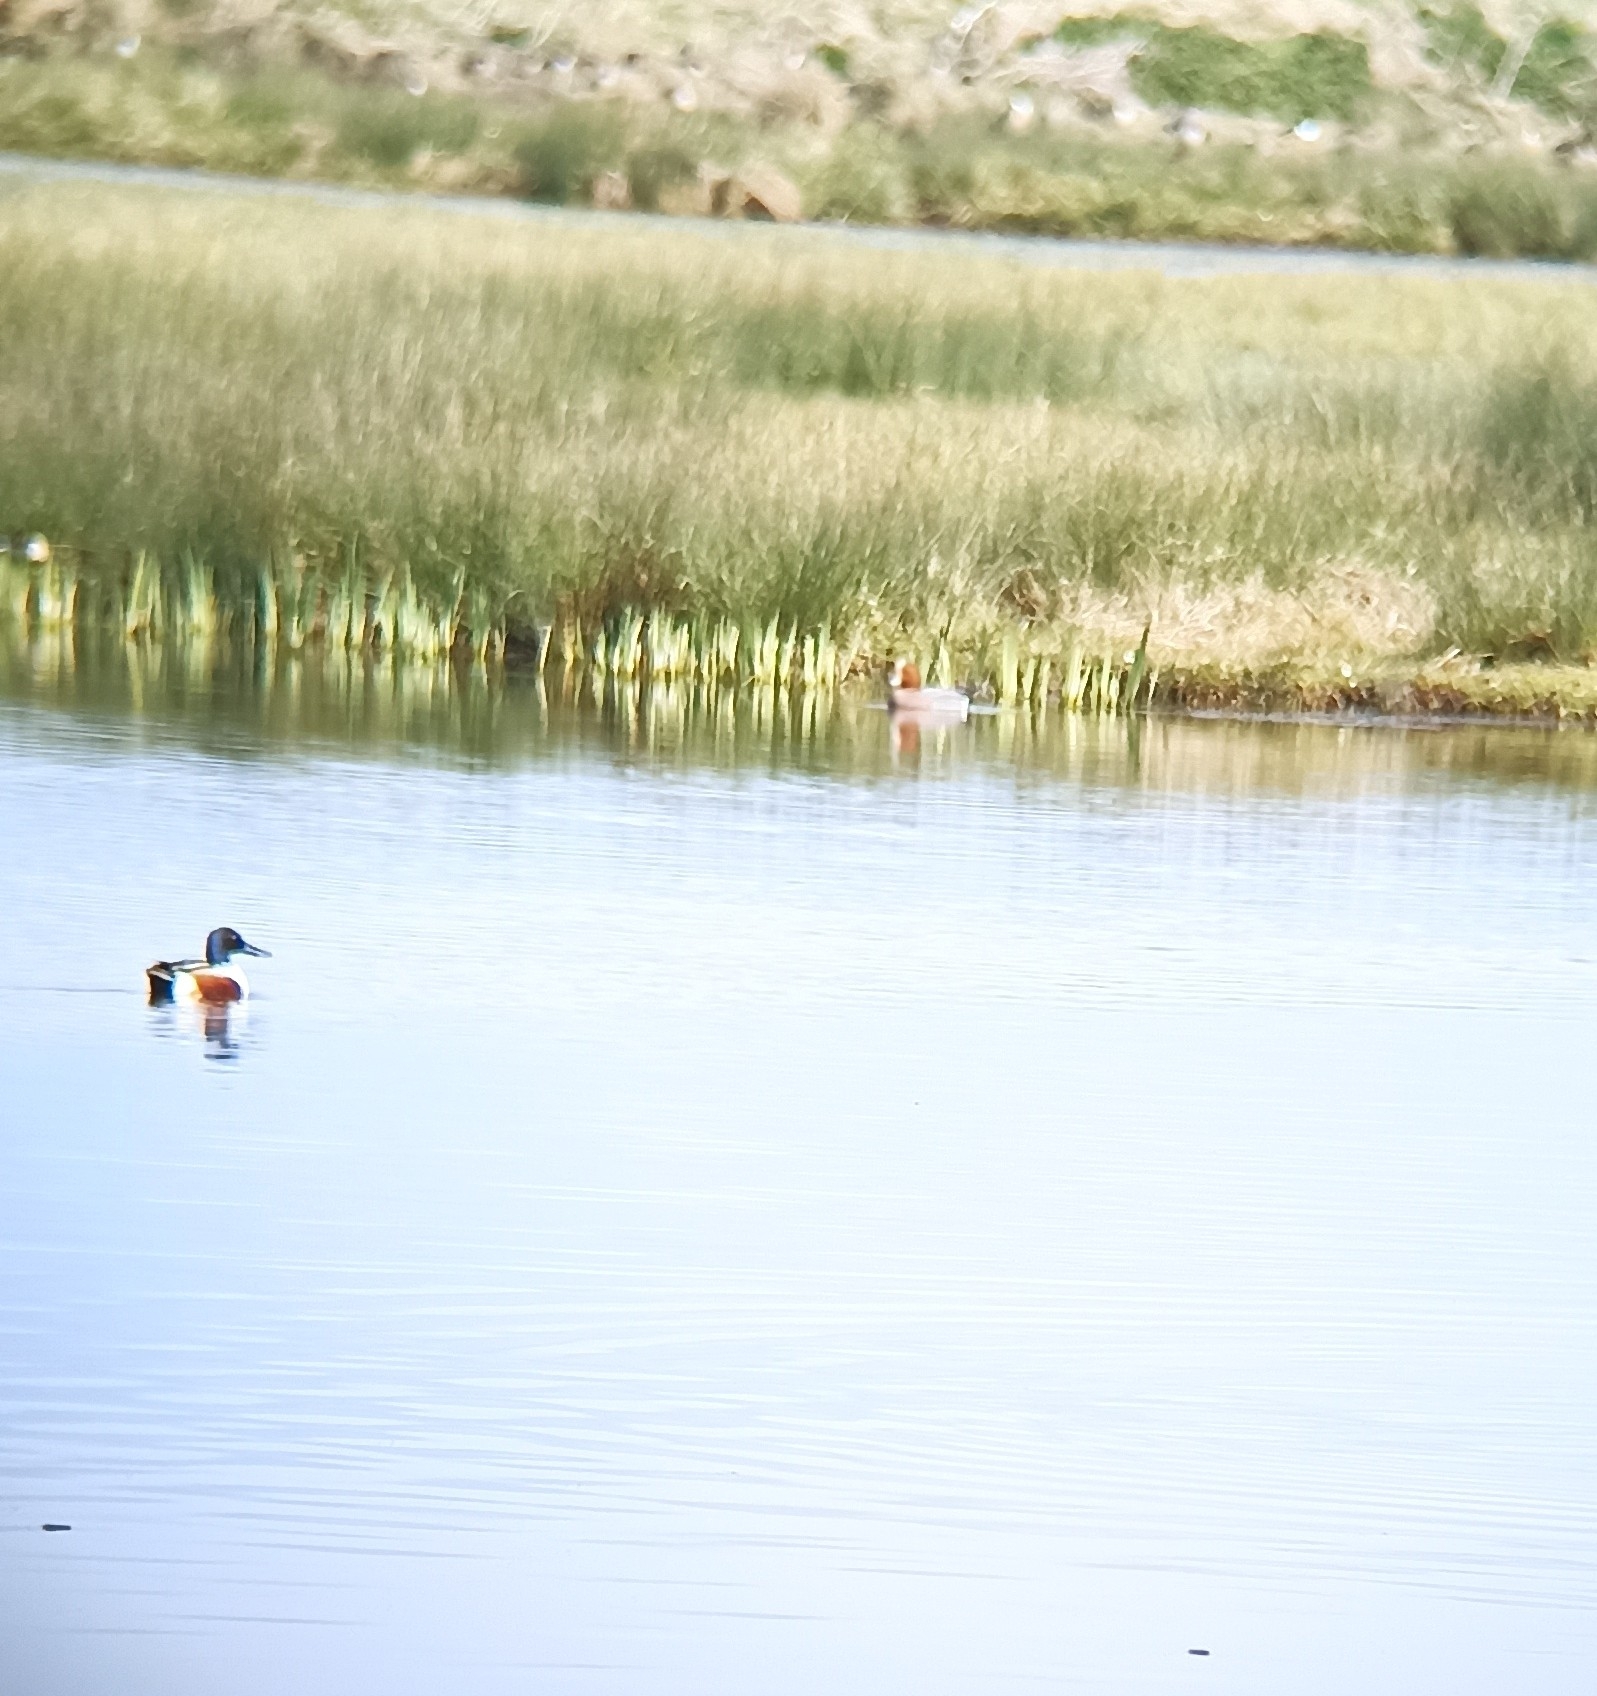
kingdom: Animalia
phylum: Chordata
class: Aves
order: Anseriformes
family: Anatidae
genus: Spatula
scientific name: Spatula clypeata
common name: Northern shoveler
